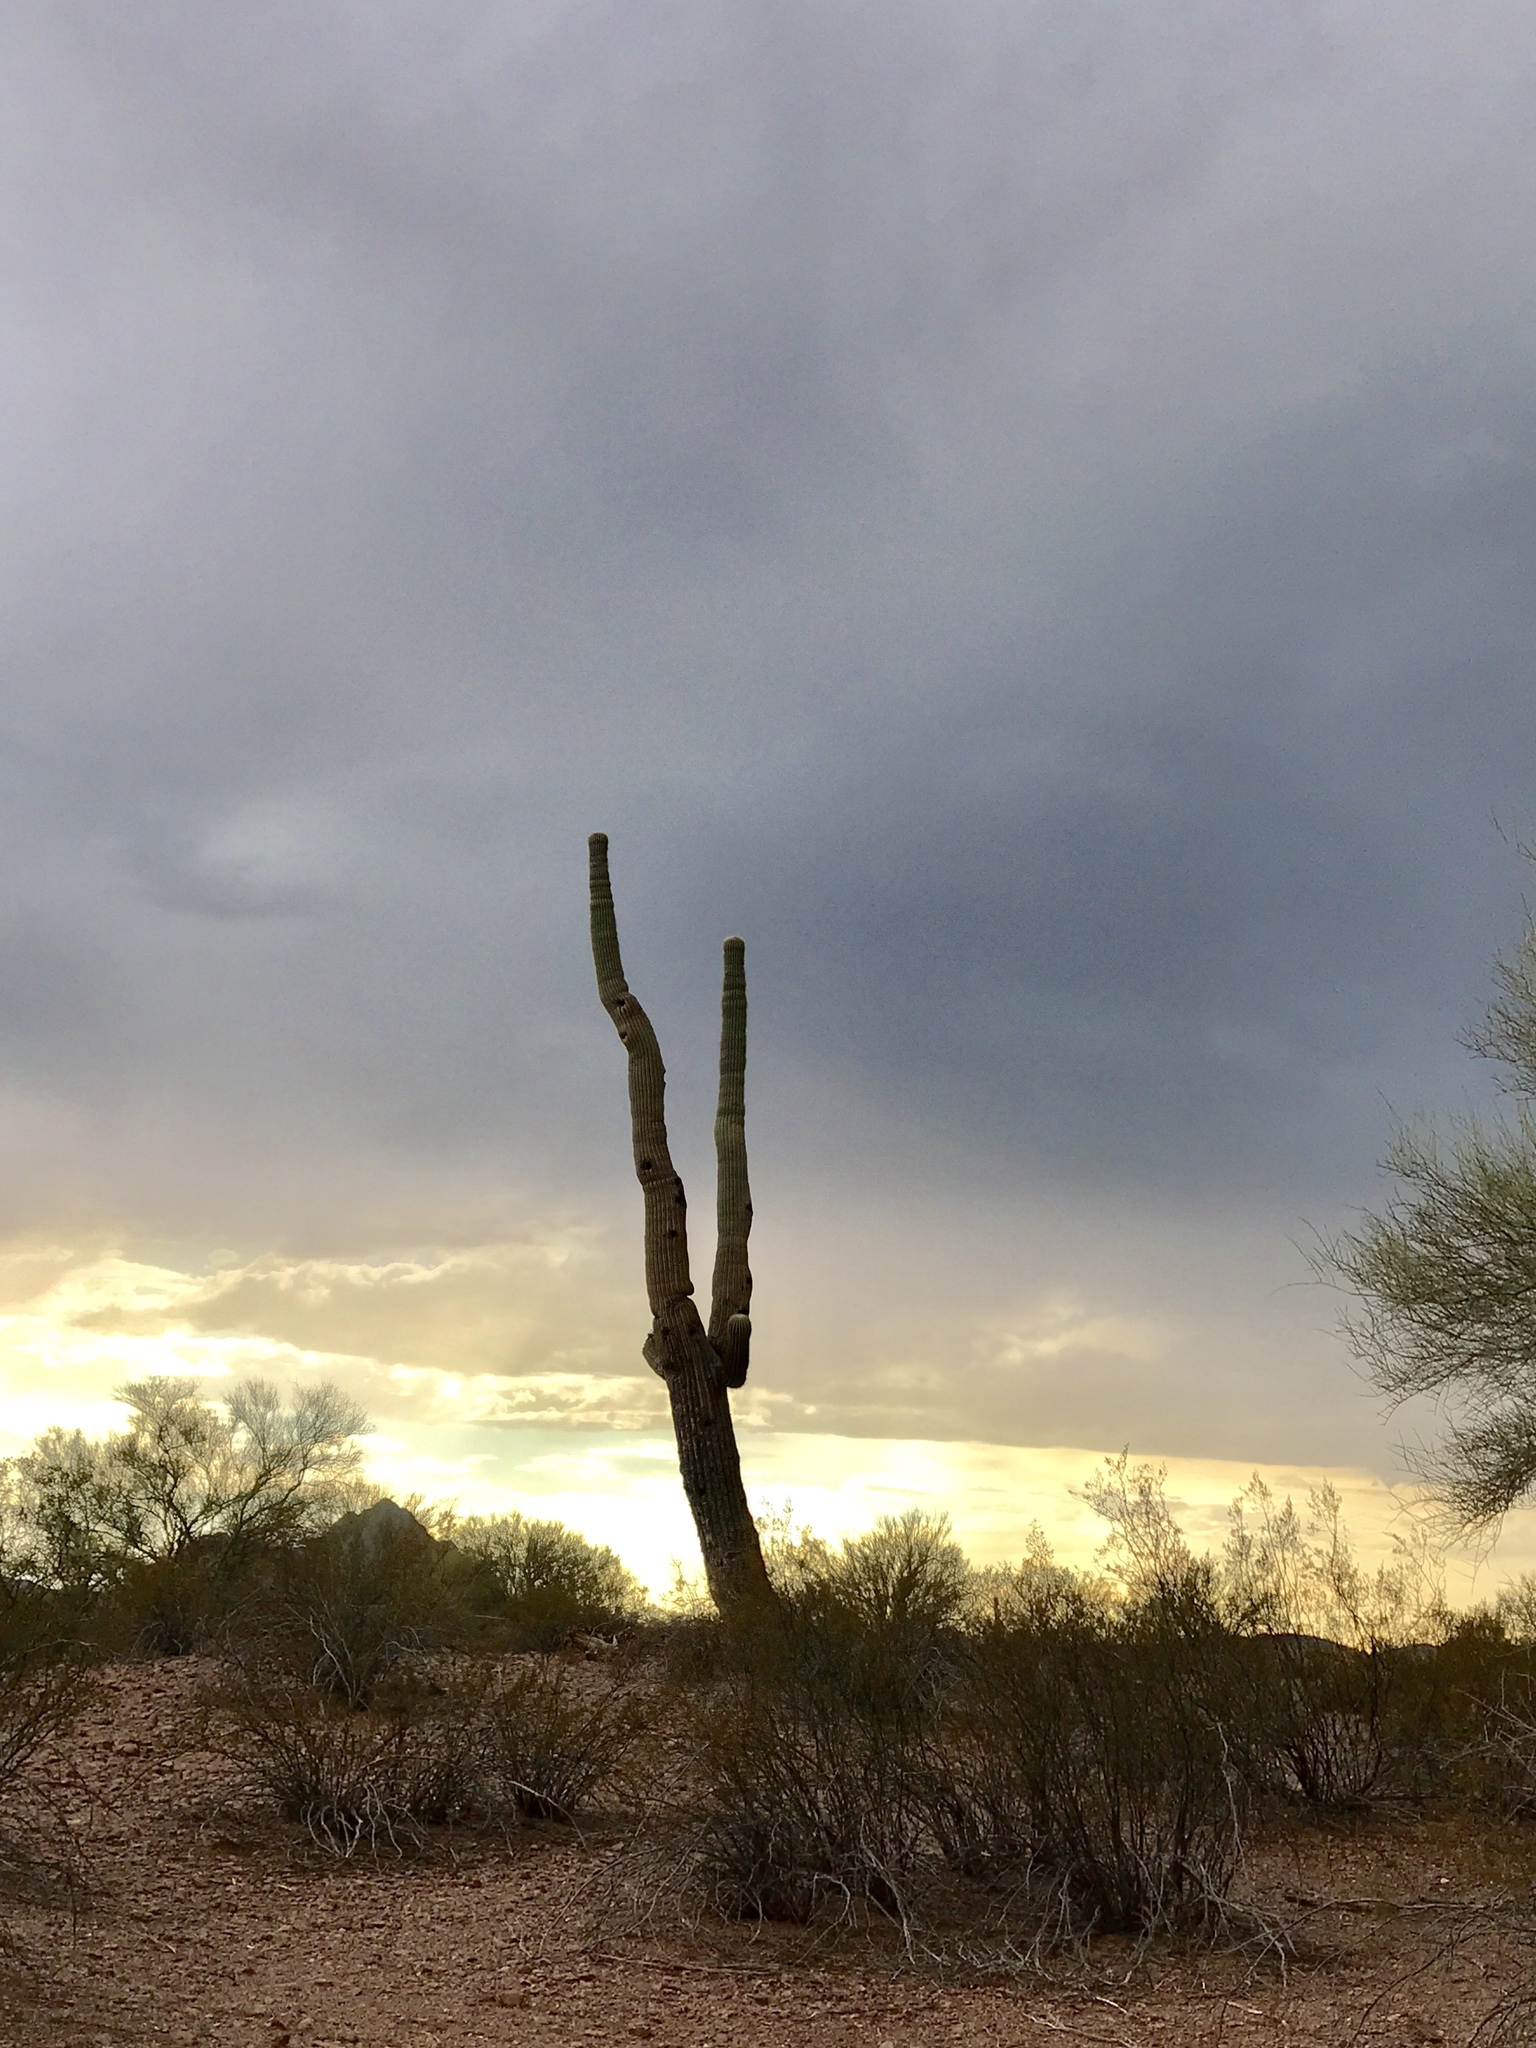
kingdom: Plantae
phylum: Tracheophyta
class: Magnoliopsida
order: Caryophyllales
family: Cactaceae
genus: Carnegiea
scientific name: Carnegiea gigantea
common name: Saguaro
